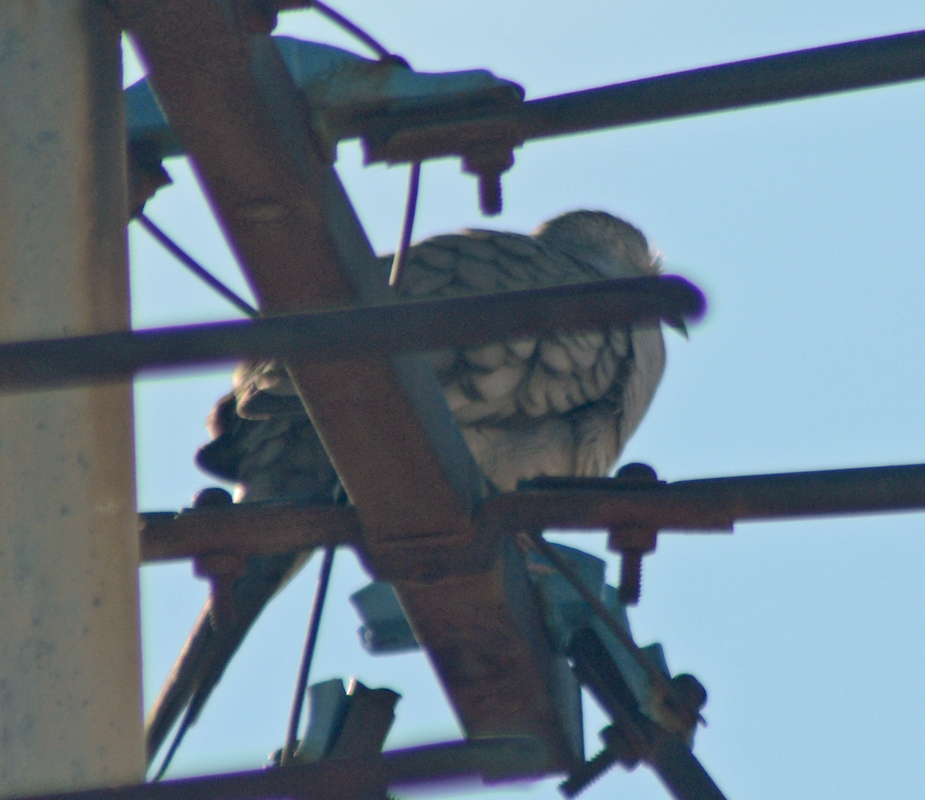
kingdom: Animalia
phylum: Chordata
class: Aves
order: Columbiformes
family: Columbidae
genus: Columbina
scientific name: Columbina inca
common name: Inca dove
